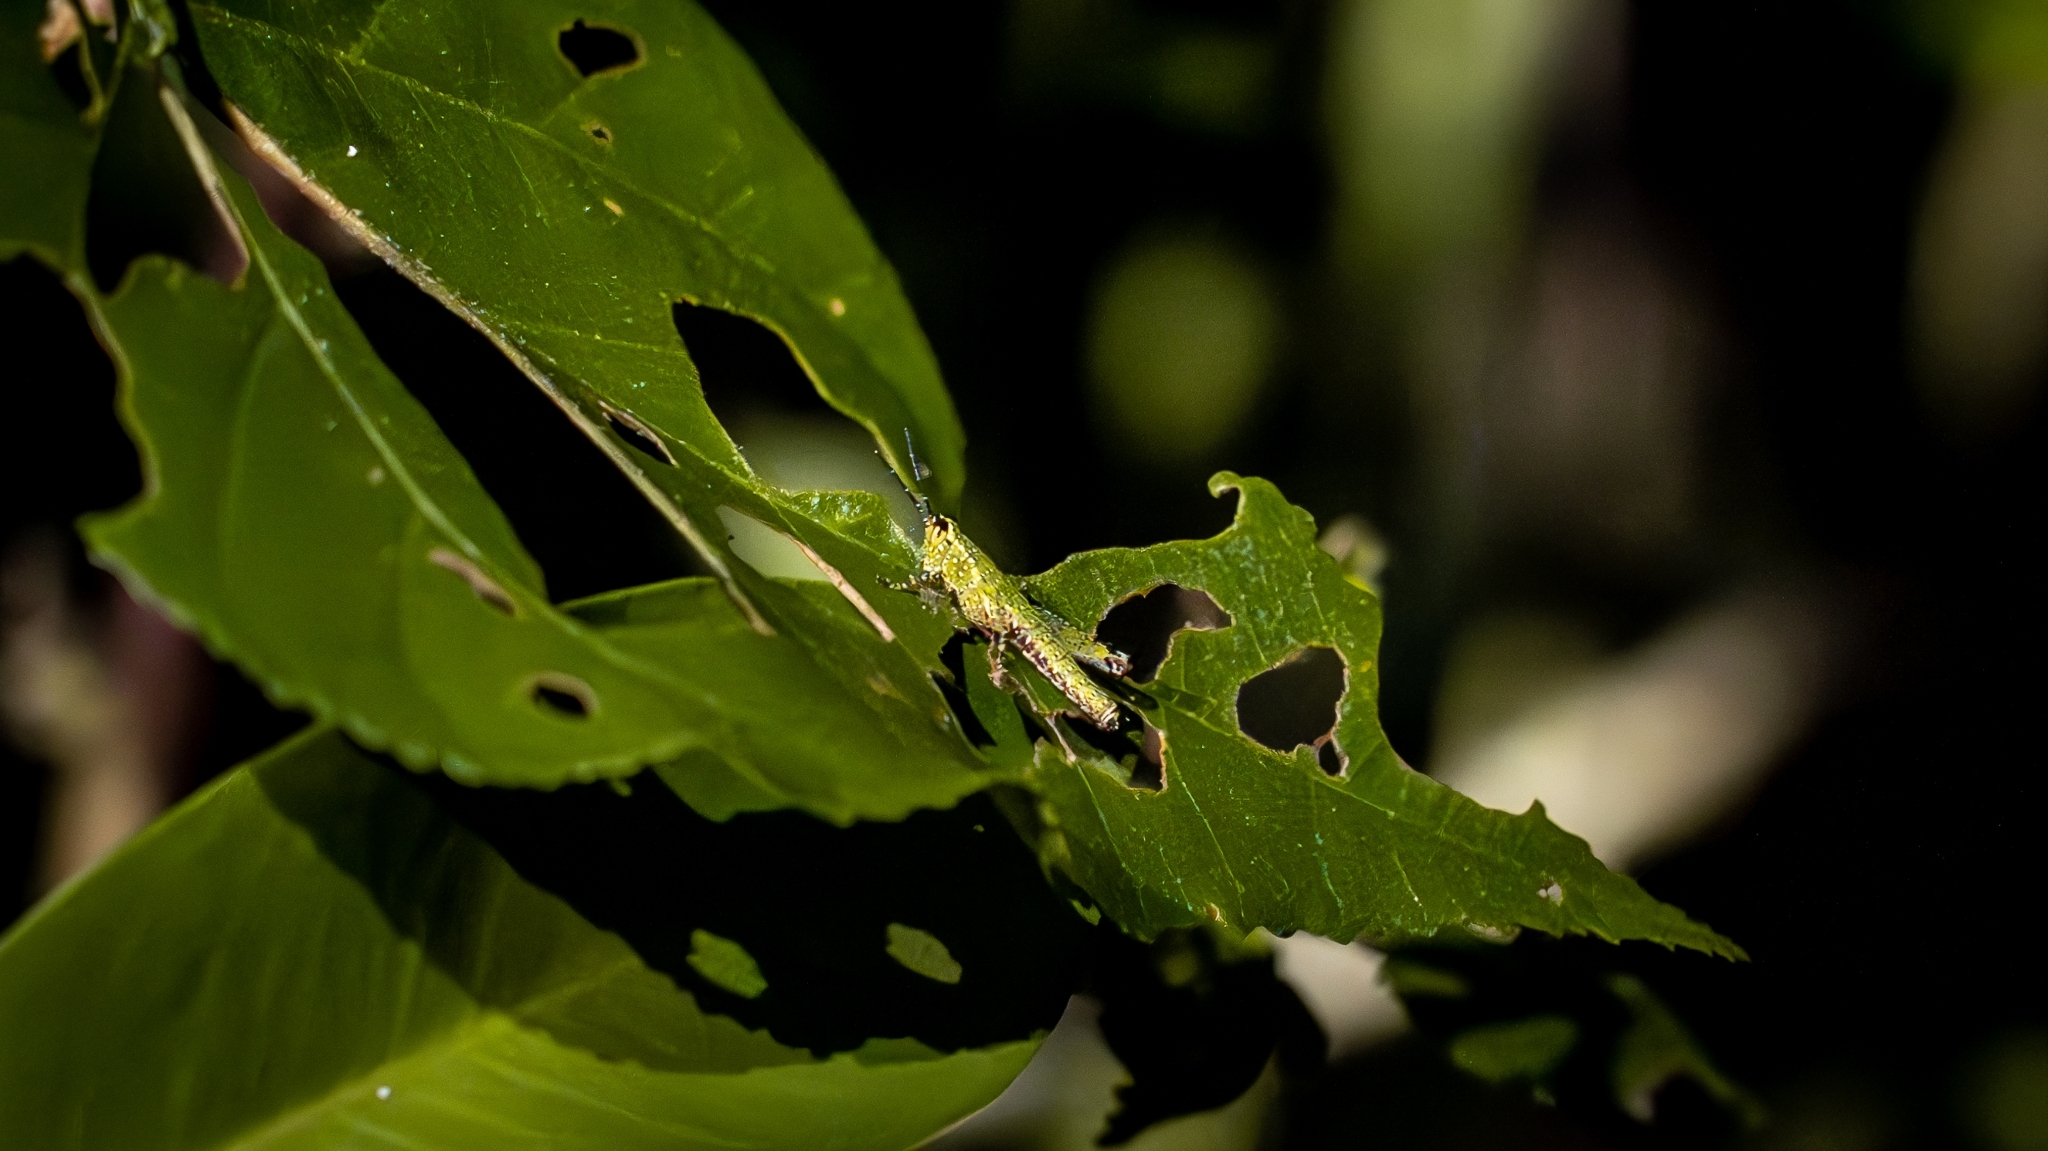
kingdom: Animalia
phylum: Arthropoda
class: Insecta
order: Orthoptera
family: Acrididae
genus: Xenocatantops
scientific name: Xenocatantops humile
